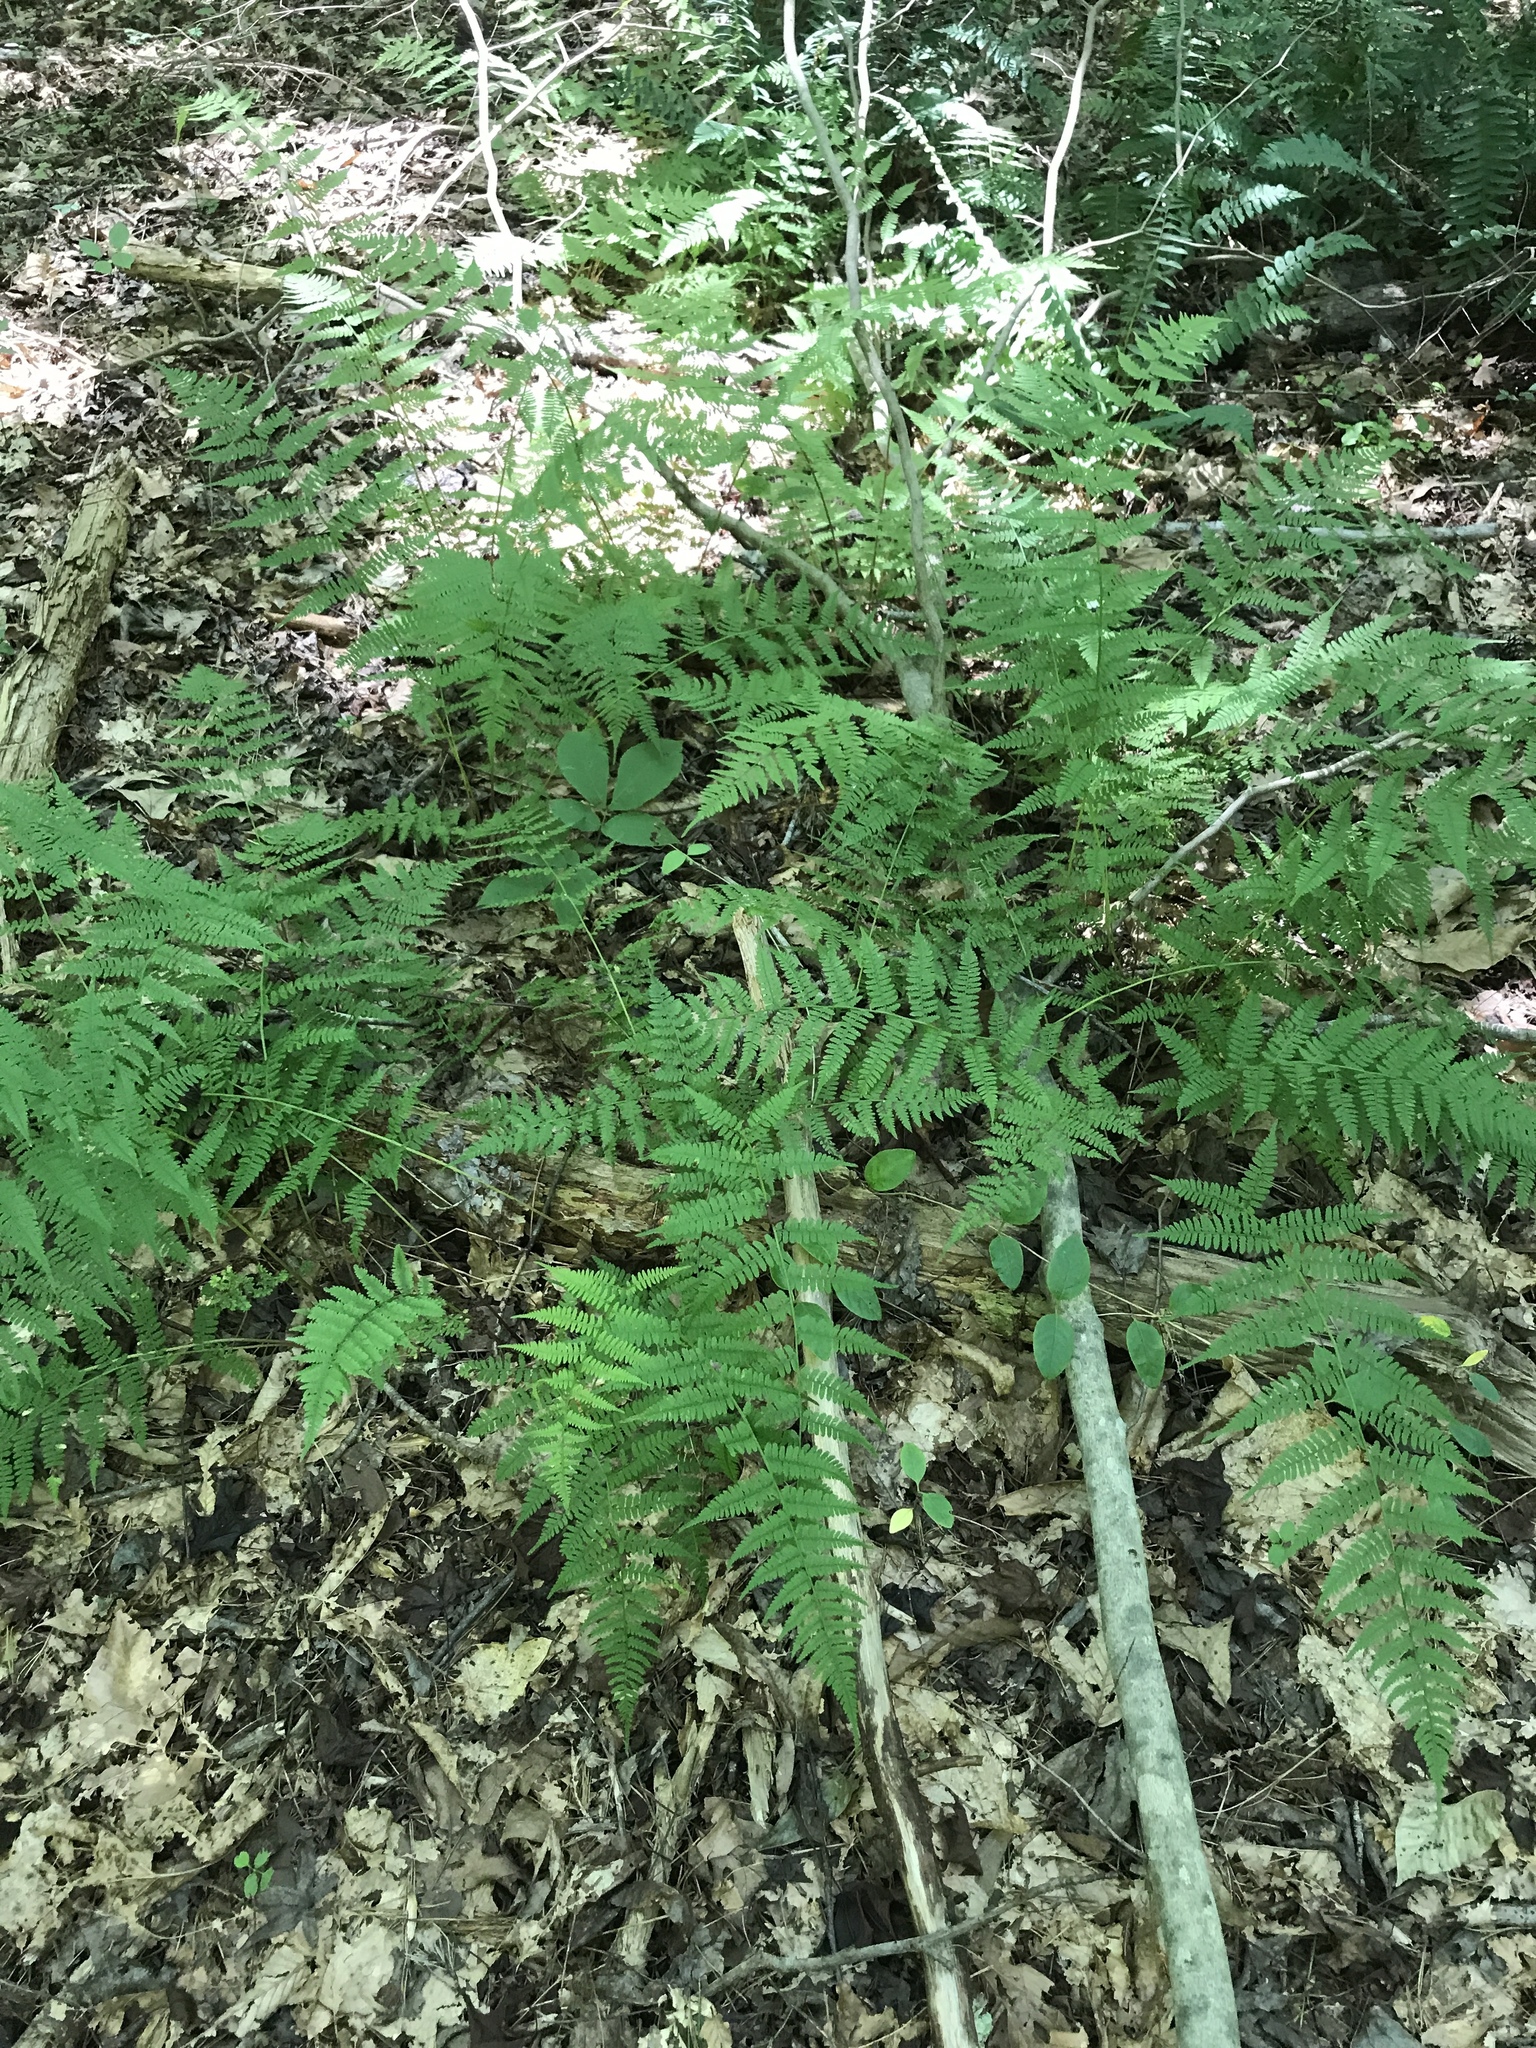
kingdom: Plantae
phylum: Tracheophyta
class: Polypodiopsida
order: Polypodiales
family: Athyriaceae
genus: Athyrium
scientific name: Athyrium asplenioides
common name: Southern lady fern
